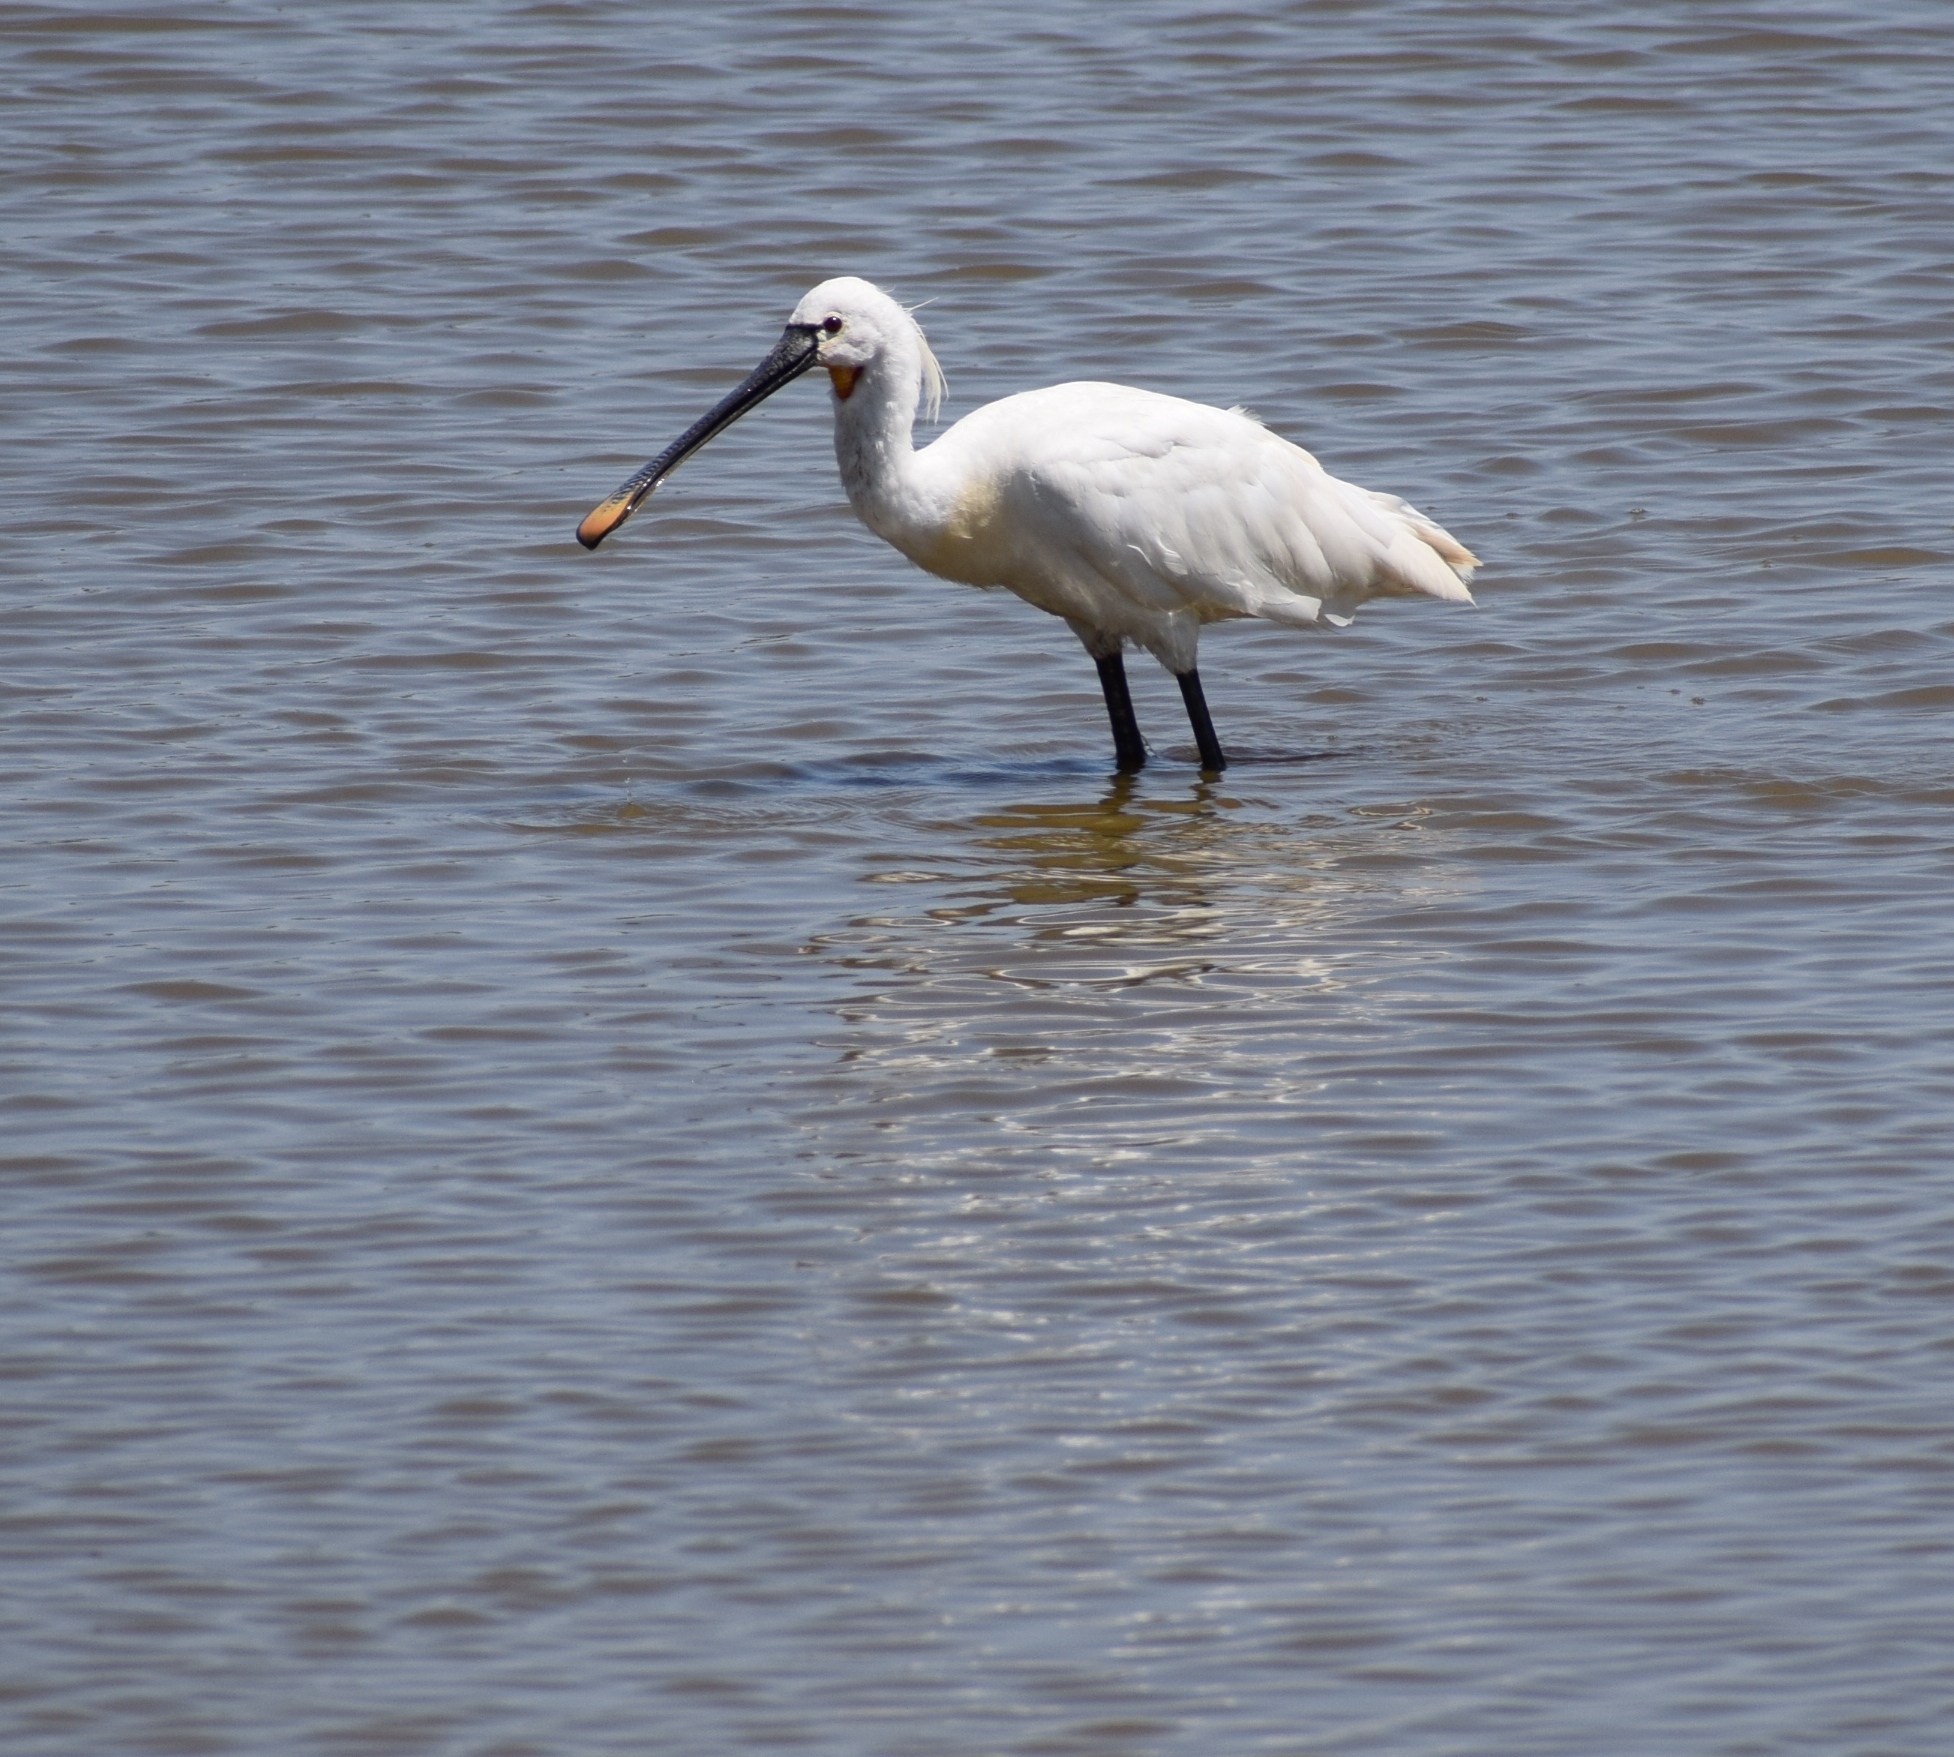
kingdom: Animalia
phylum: Chordata
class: Aves
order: Pelecaniformes
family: Threskiornithidae
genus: Platalea
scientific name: Platalea leucorodia
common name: Eurasian spoonbill
